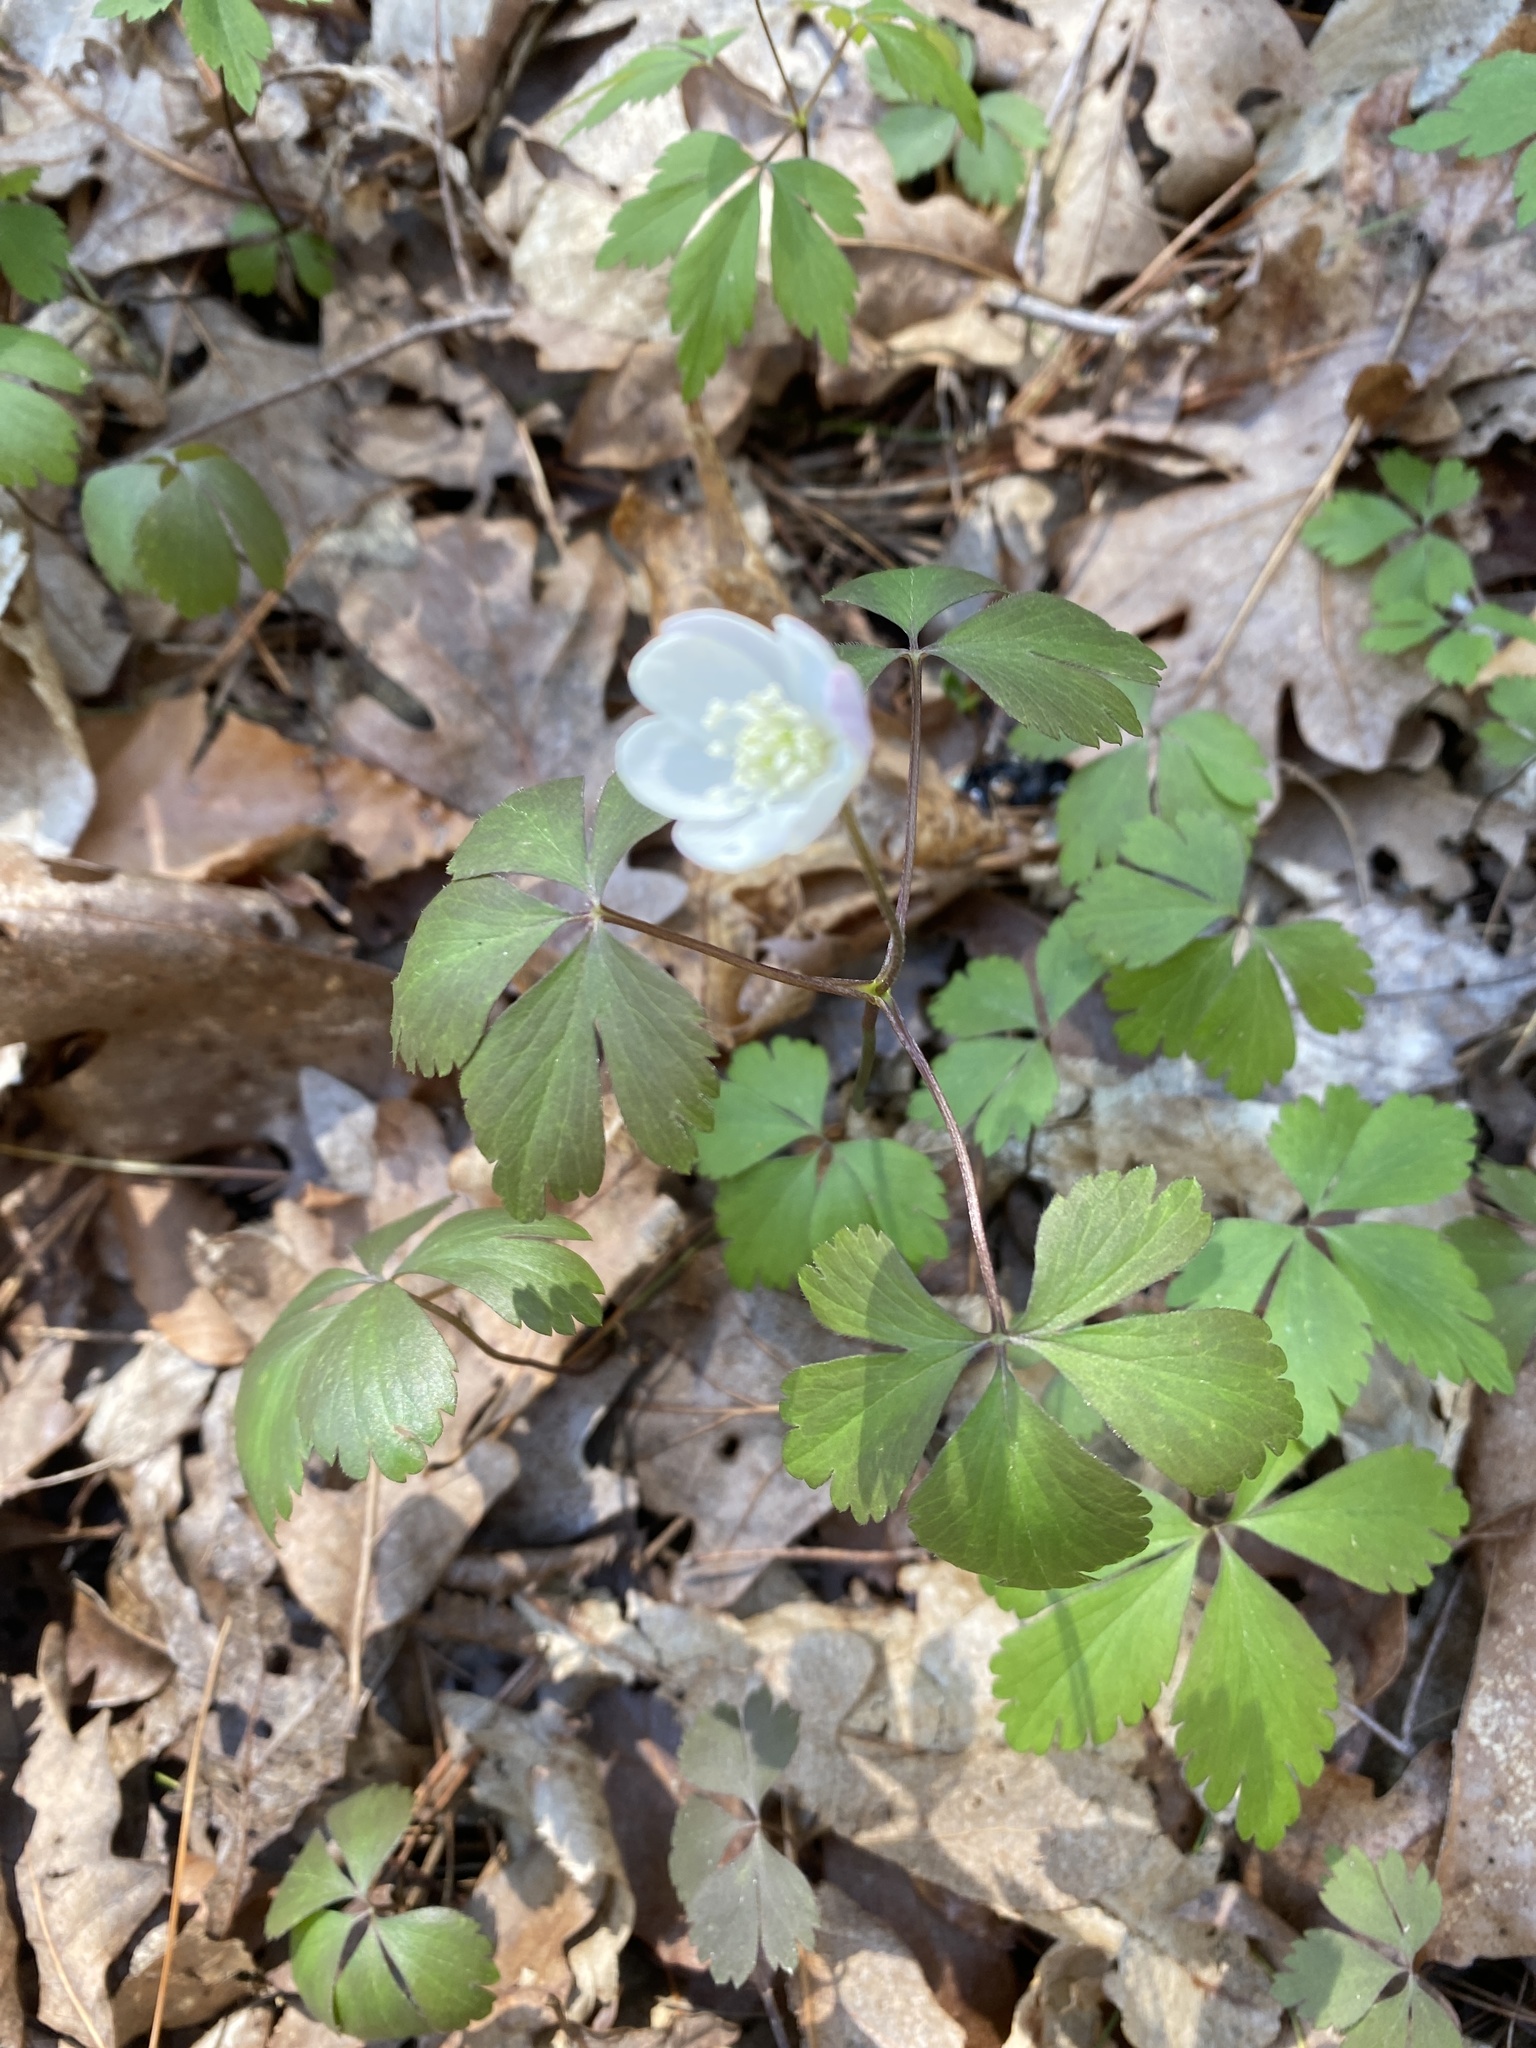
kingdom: Plantae
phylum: Tracheophyta
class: Magnoliopsida
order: Ranunculales
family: Ranunculaceae
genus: Anemone
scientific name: Anemone quinquefolia
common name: Wood anemone
